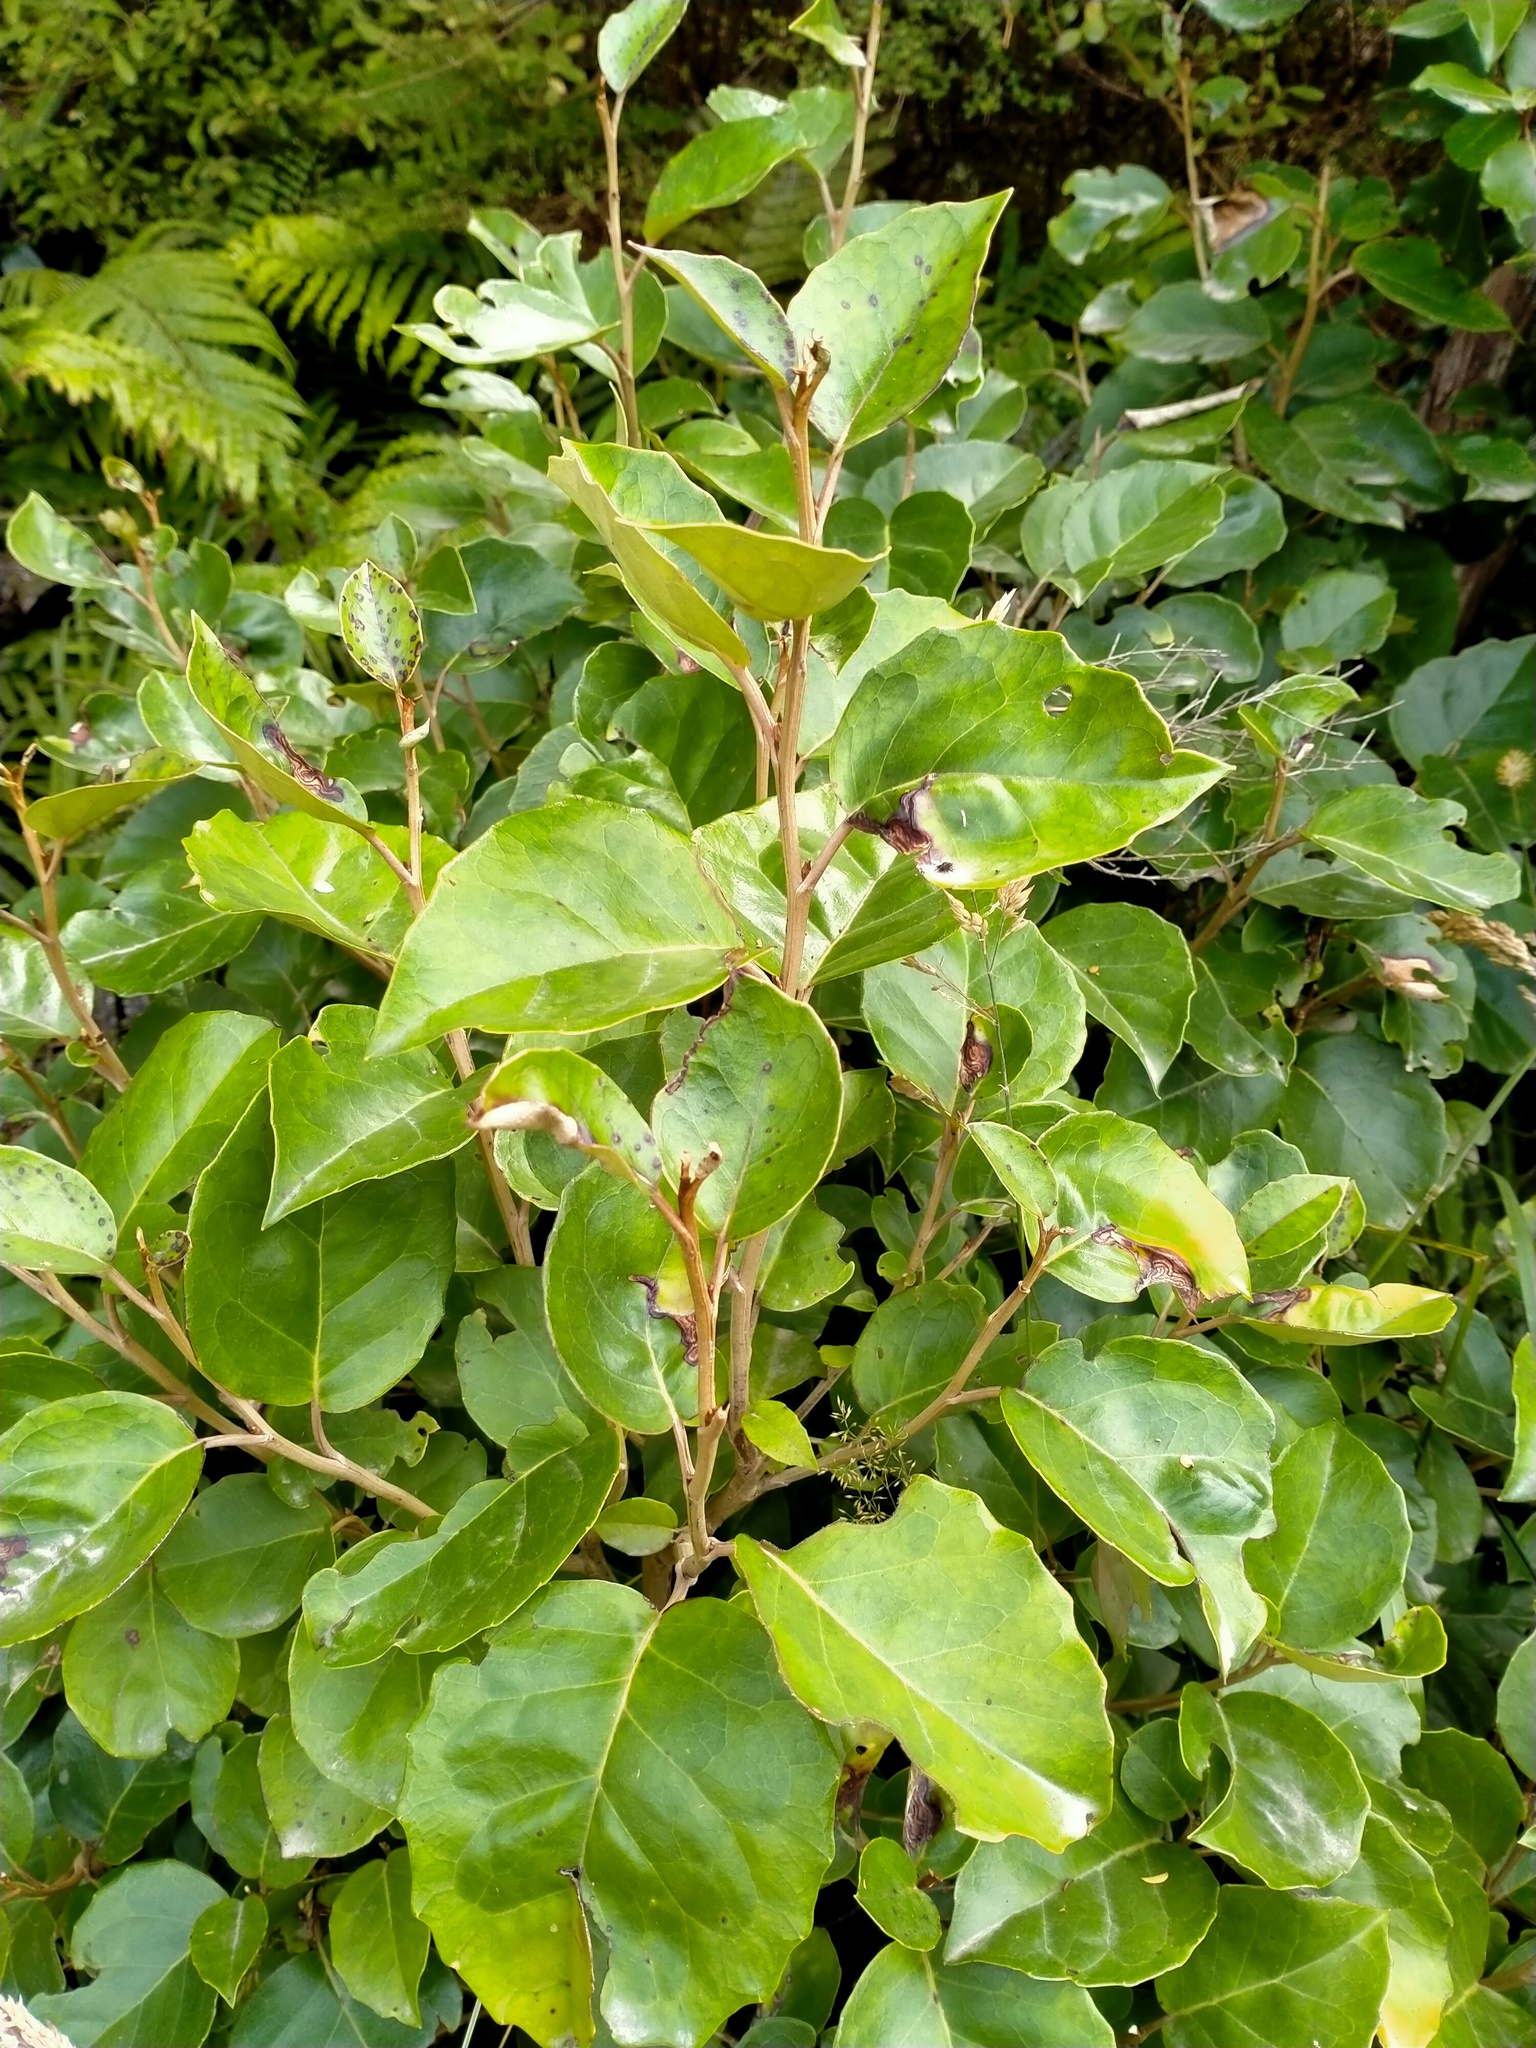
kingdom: Plantae
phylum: Tracheophyta
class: Magnoliopsida
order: Asterales
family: Asteraceae
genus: Olearia
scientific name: Olearia arborescens
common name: Glossy tree daisy
